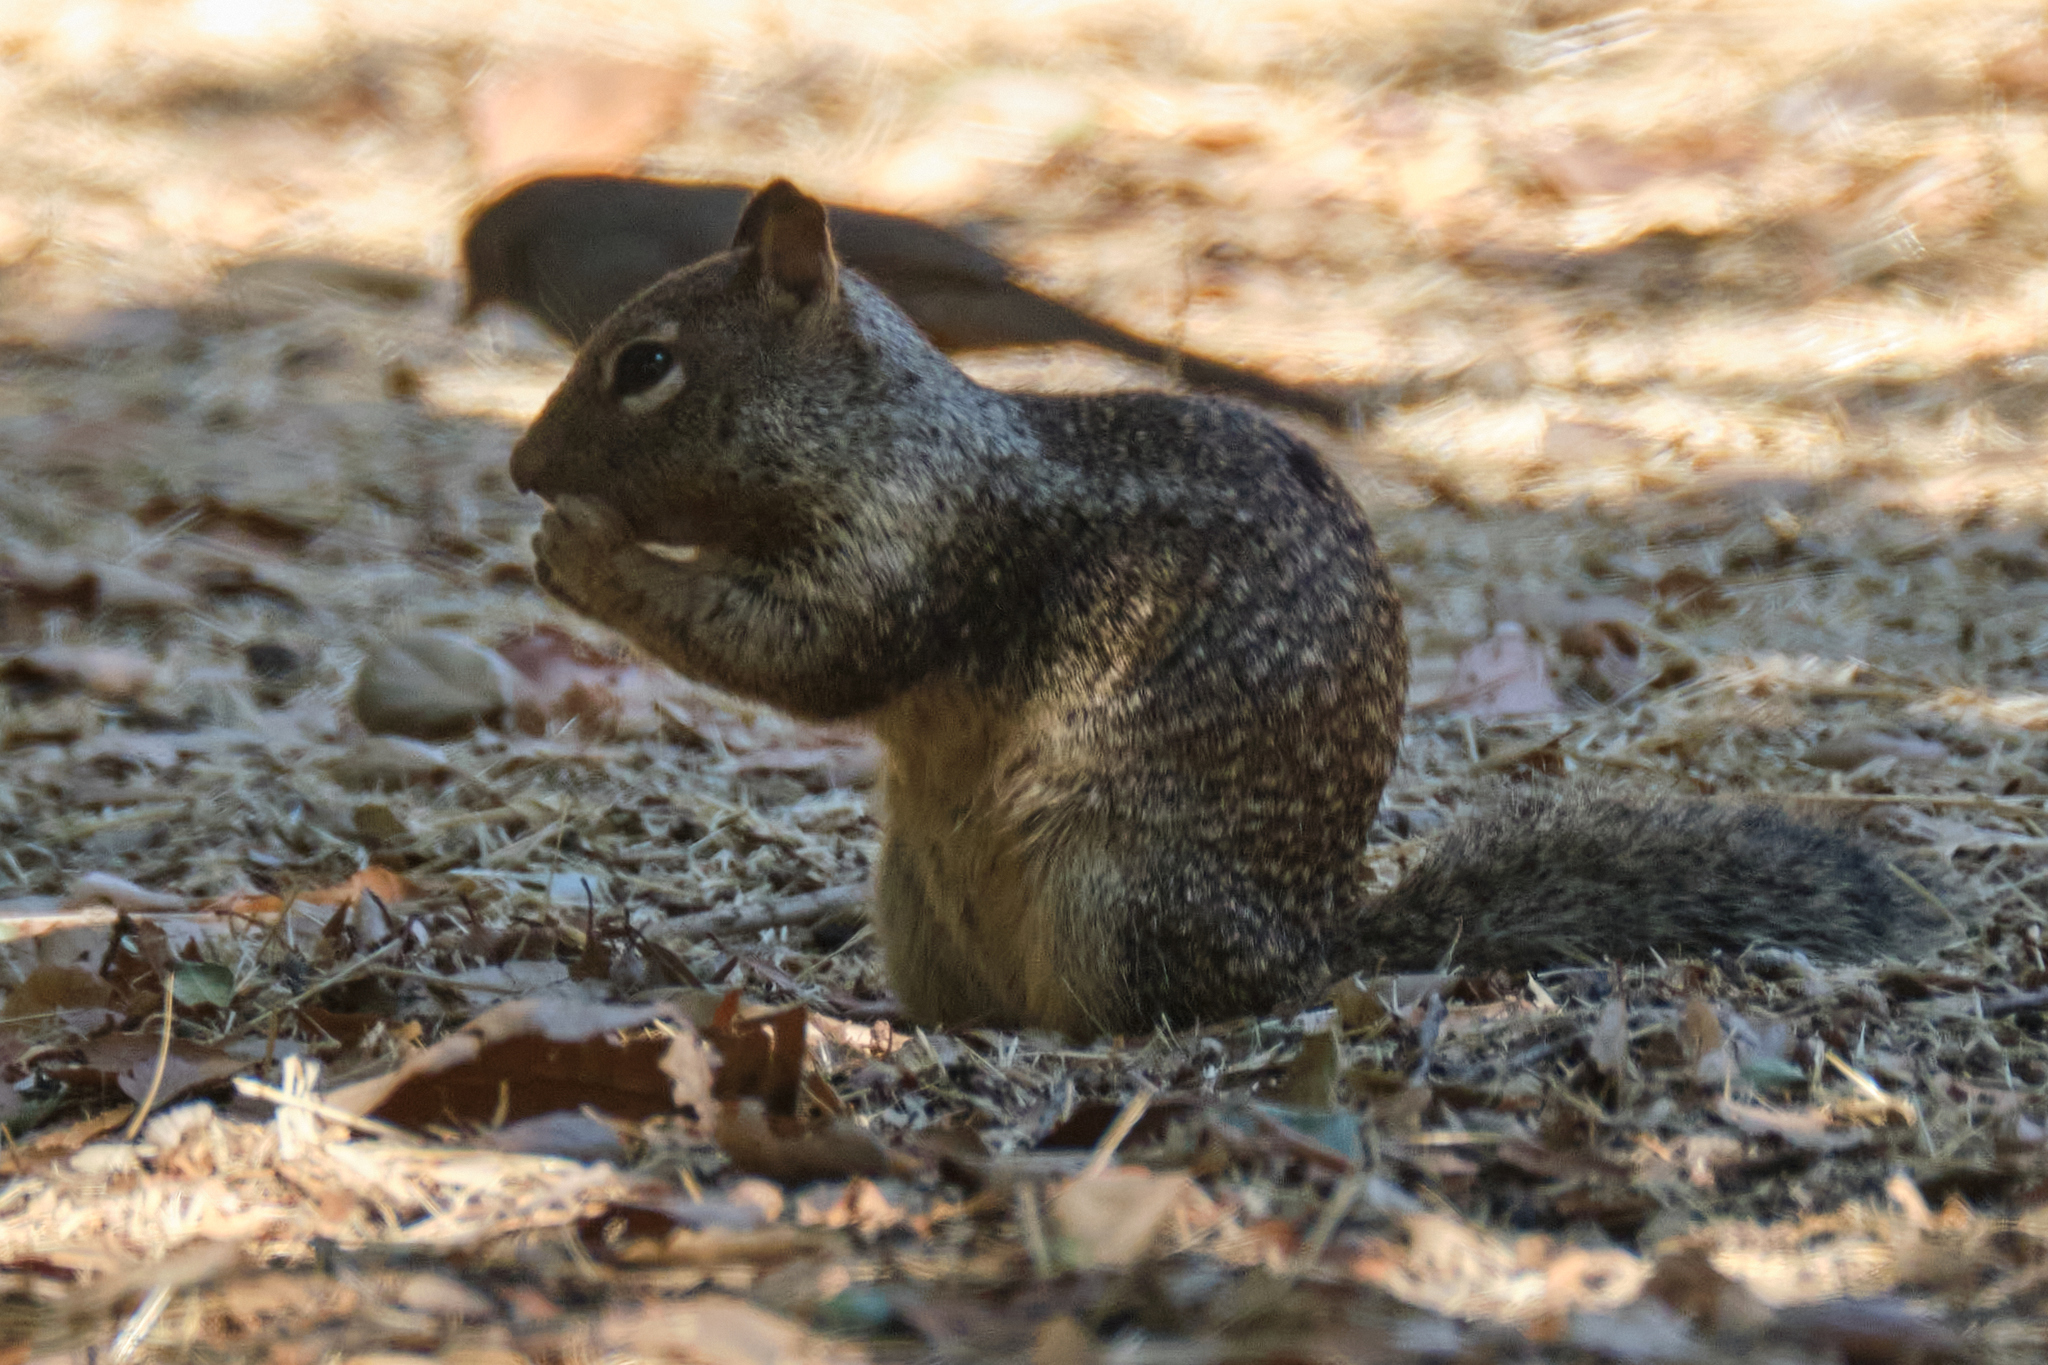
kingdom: Animalia
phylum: Chordata
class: Mammalia
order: Rodentia
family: Sciuridae
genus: Otospermophilus
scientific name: Otospermophilus beecheyi
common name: California ground squirrel
